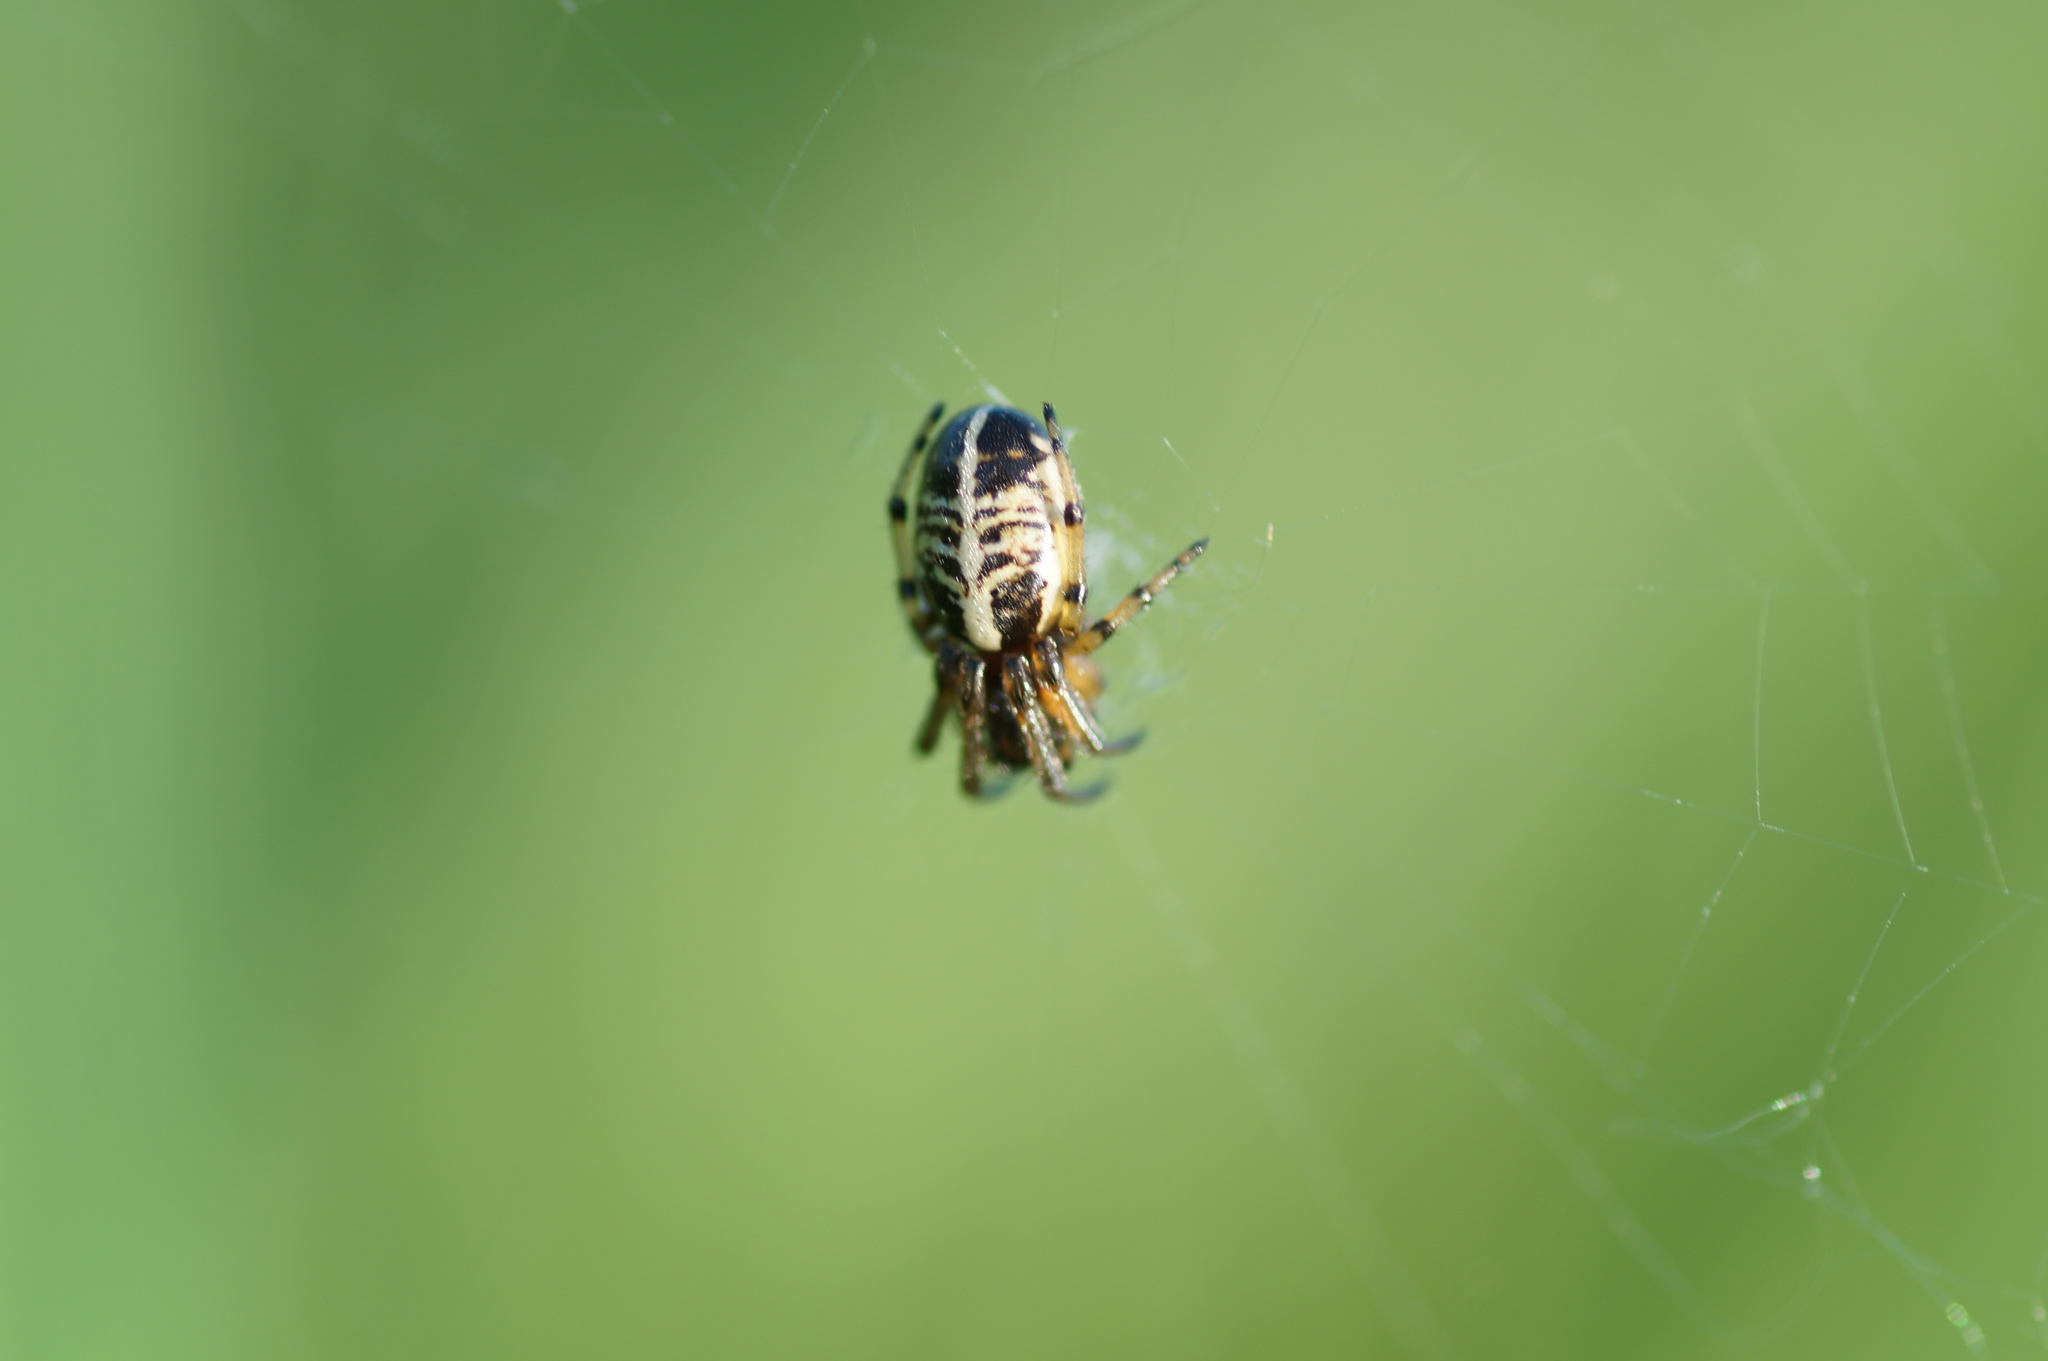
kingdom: Animalia
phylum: Arthropoda
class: Arachnida
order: Araneae
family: Araneidae
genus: Singa
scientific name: Singa hamata
